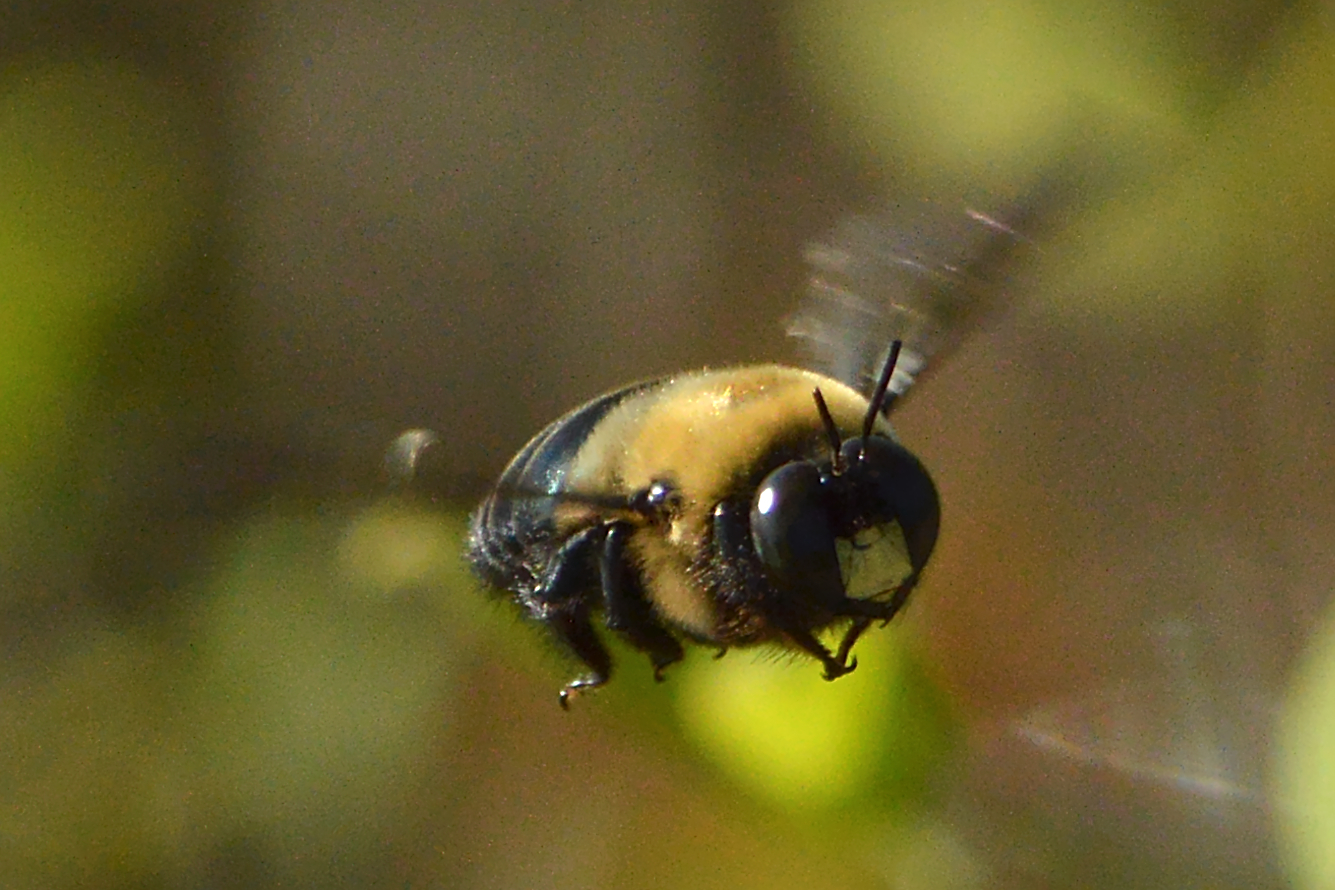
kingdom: Animalia
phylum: Arthropoda
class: Insecta
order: Hymenoptera
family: Apidae
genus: Xylocopa
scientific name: Xylocopa virginica
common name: Carpenter bee
